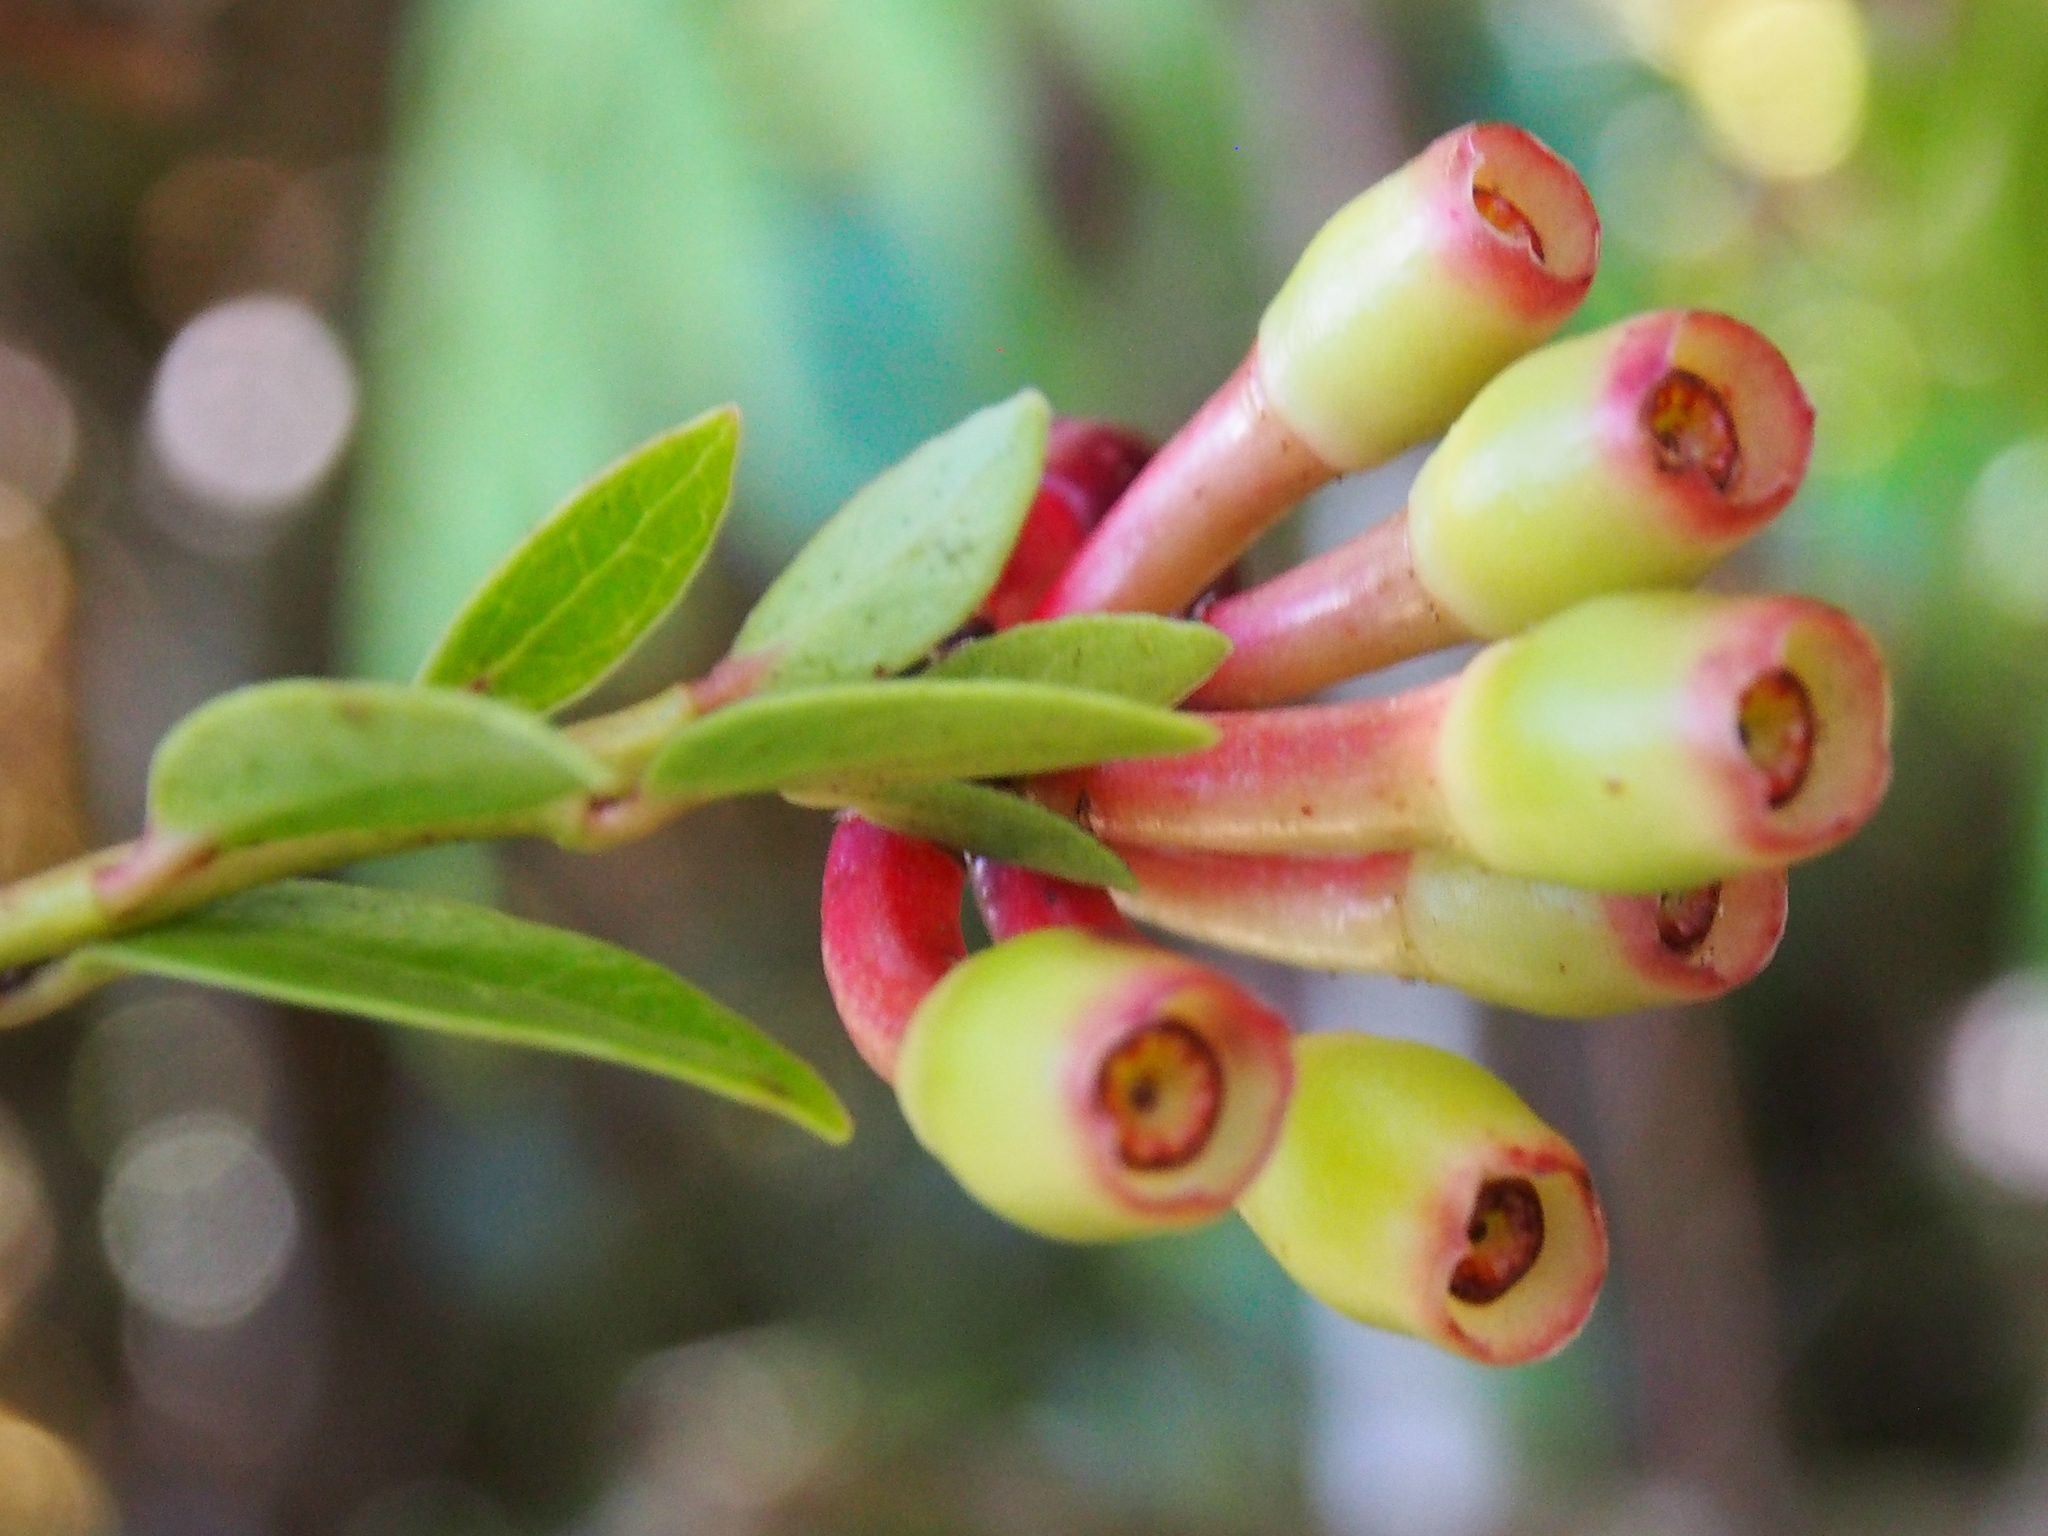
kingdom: Plantae
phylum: Tracheophyta
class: Magnoliopsida
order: Ericales
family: Ericaceae
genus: Macleania
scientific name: Macleania rupestris
